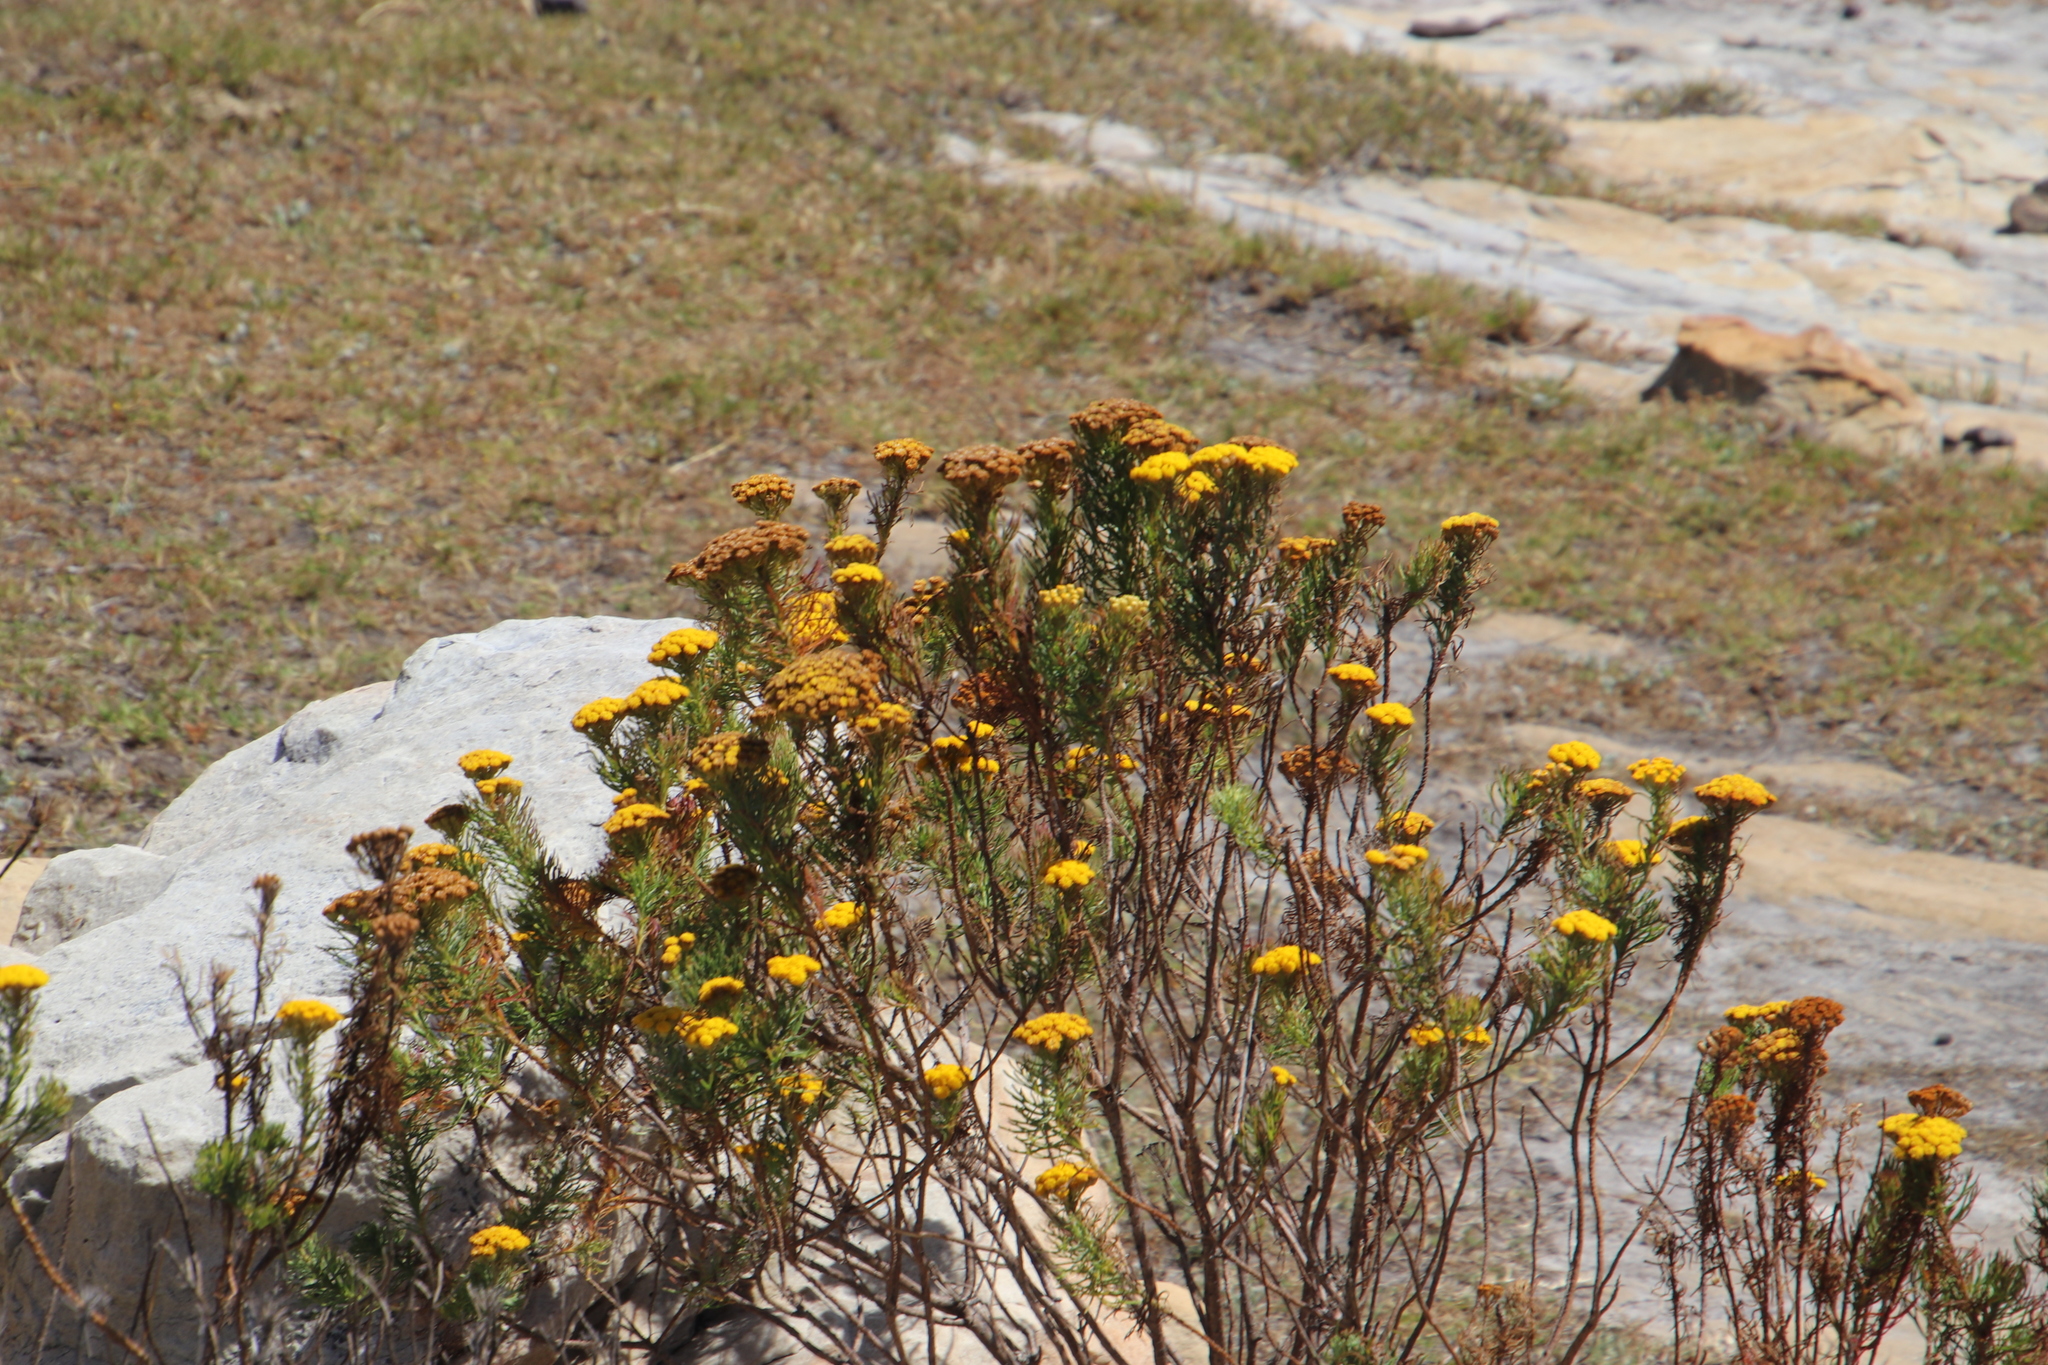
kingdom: Plantae
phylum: Tracheophyta
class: Magnoliopsida
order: Asterales
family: Asteraceae
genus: Athanasia
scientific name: Athanasia crithmifolia
